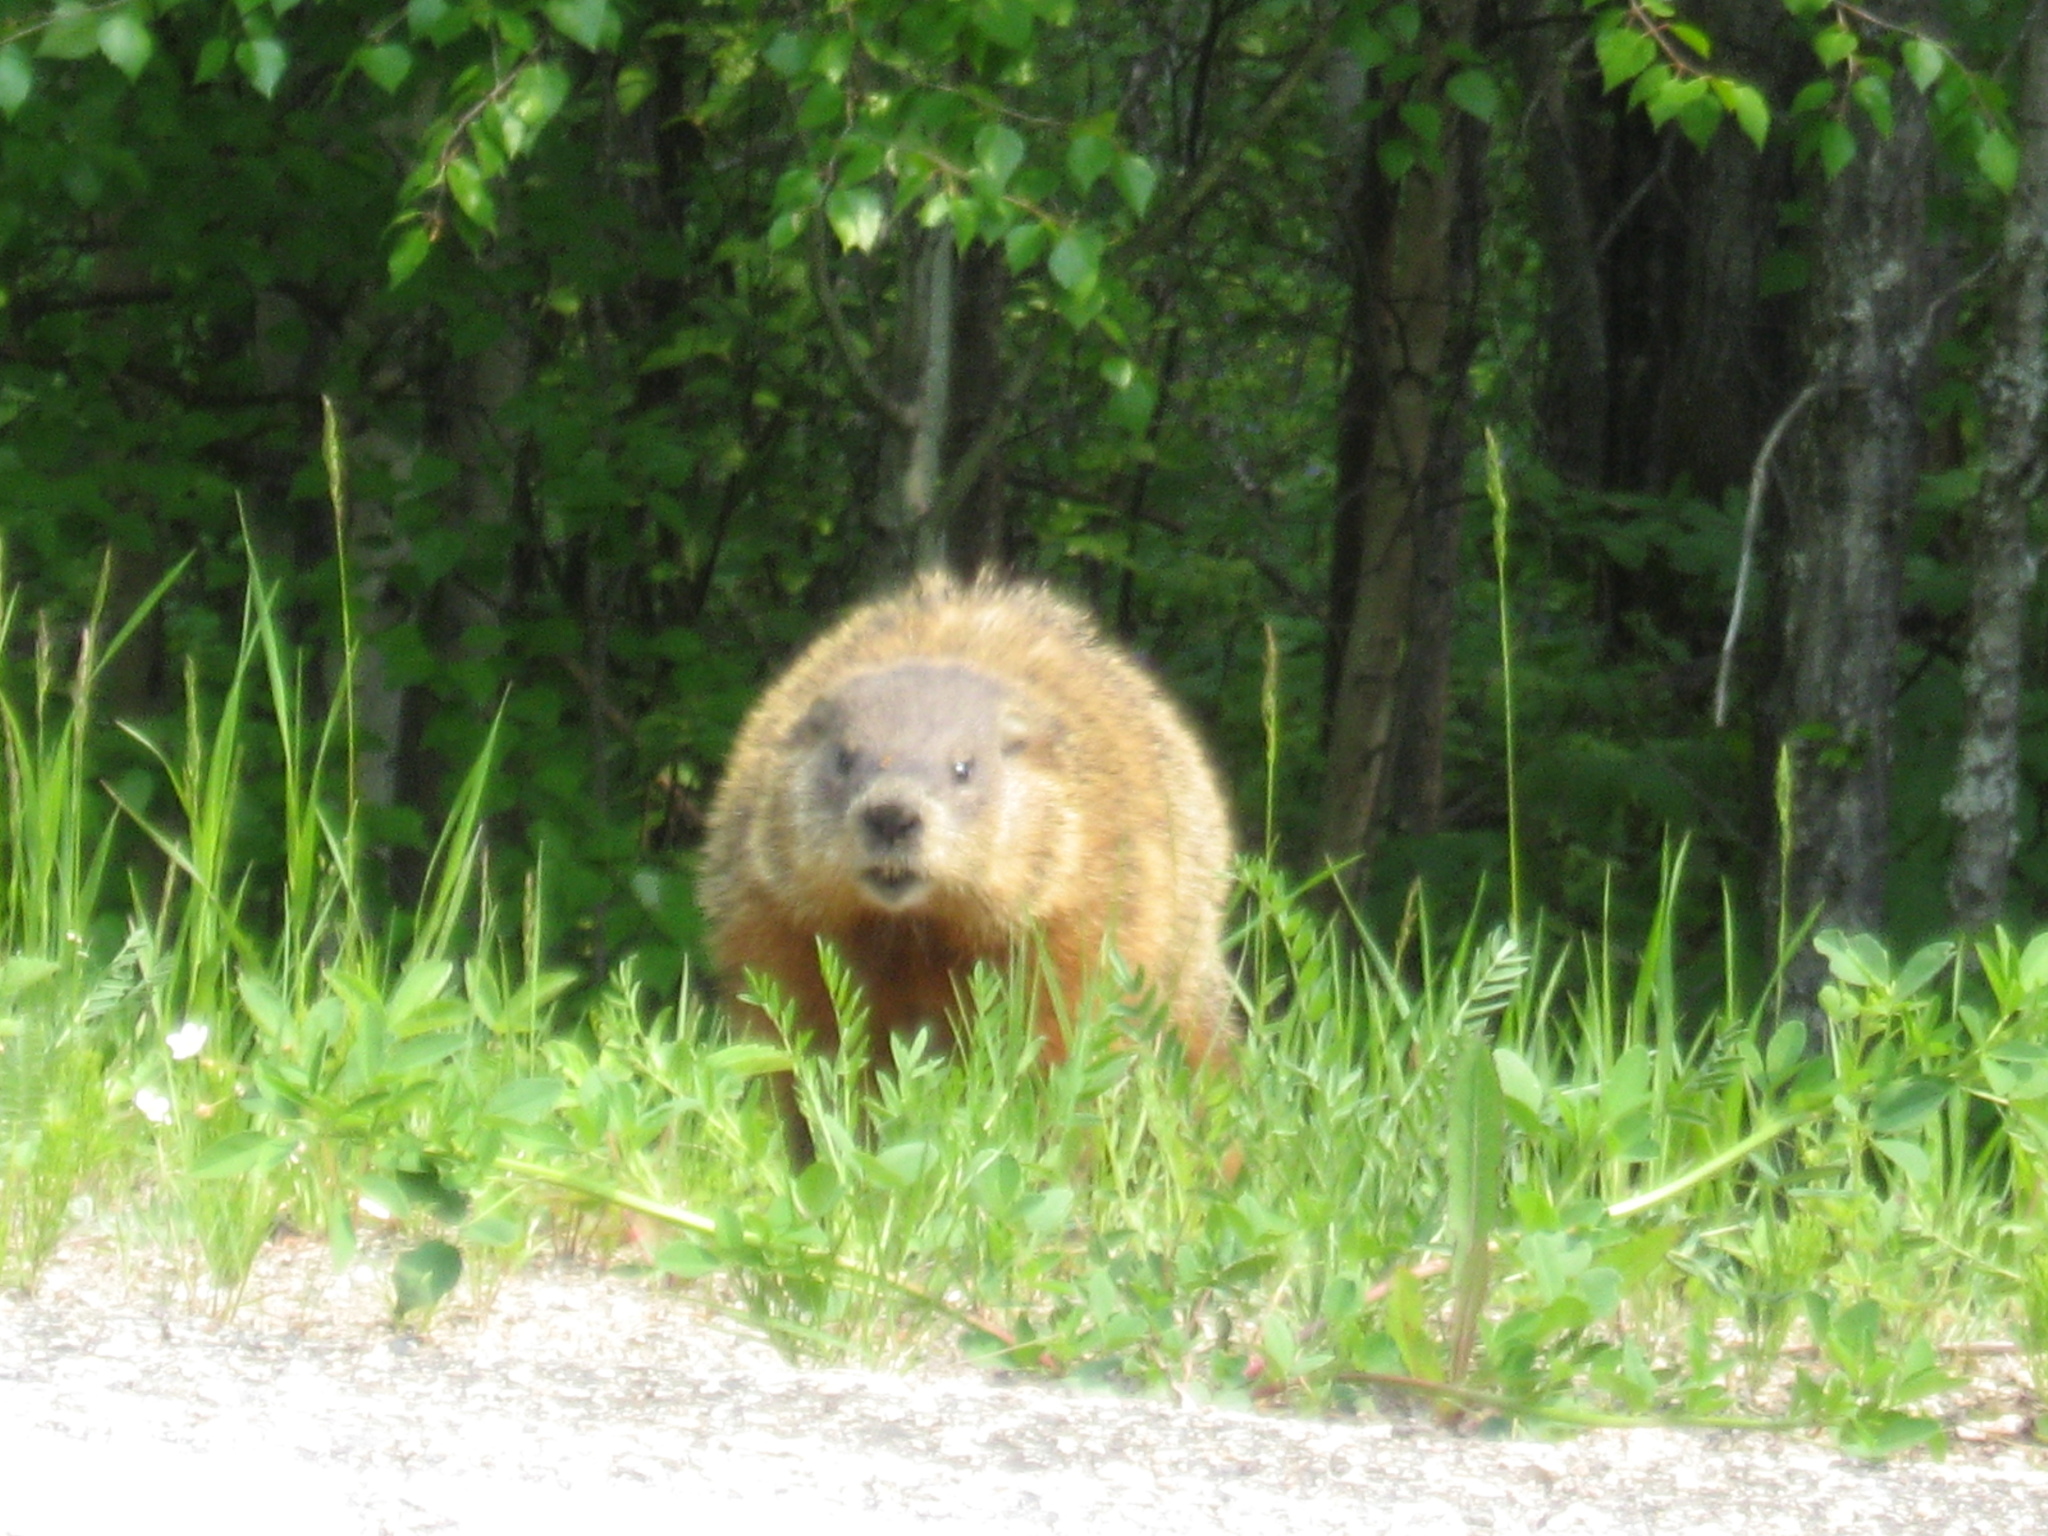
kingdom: Animalia
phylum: Chordata
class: Mammalia
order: Rodentia
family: Sciuridae
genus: Marmota
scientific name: Marmota monax
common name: Groundhog
